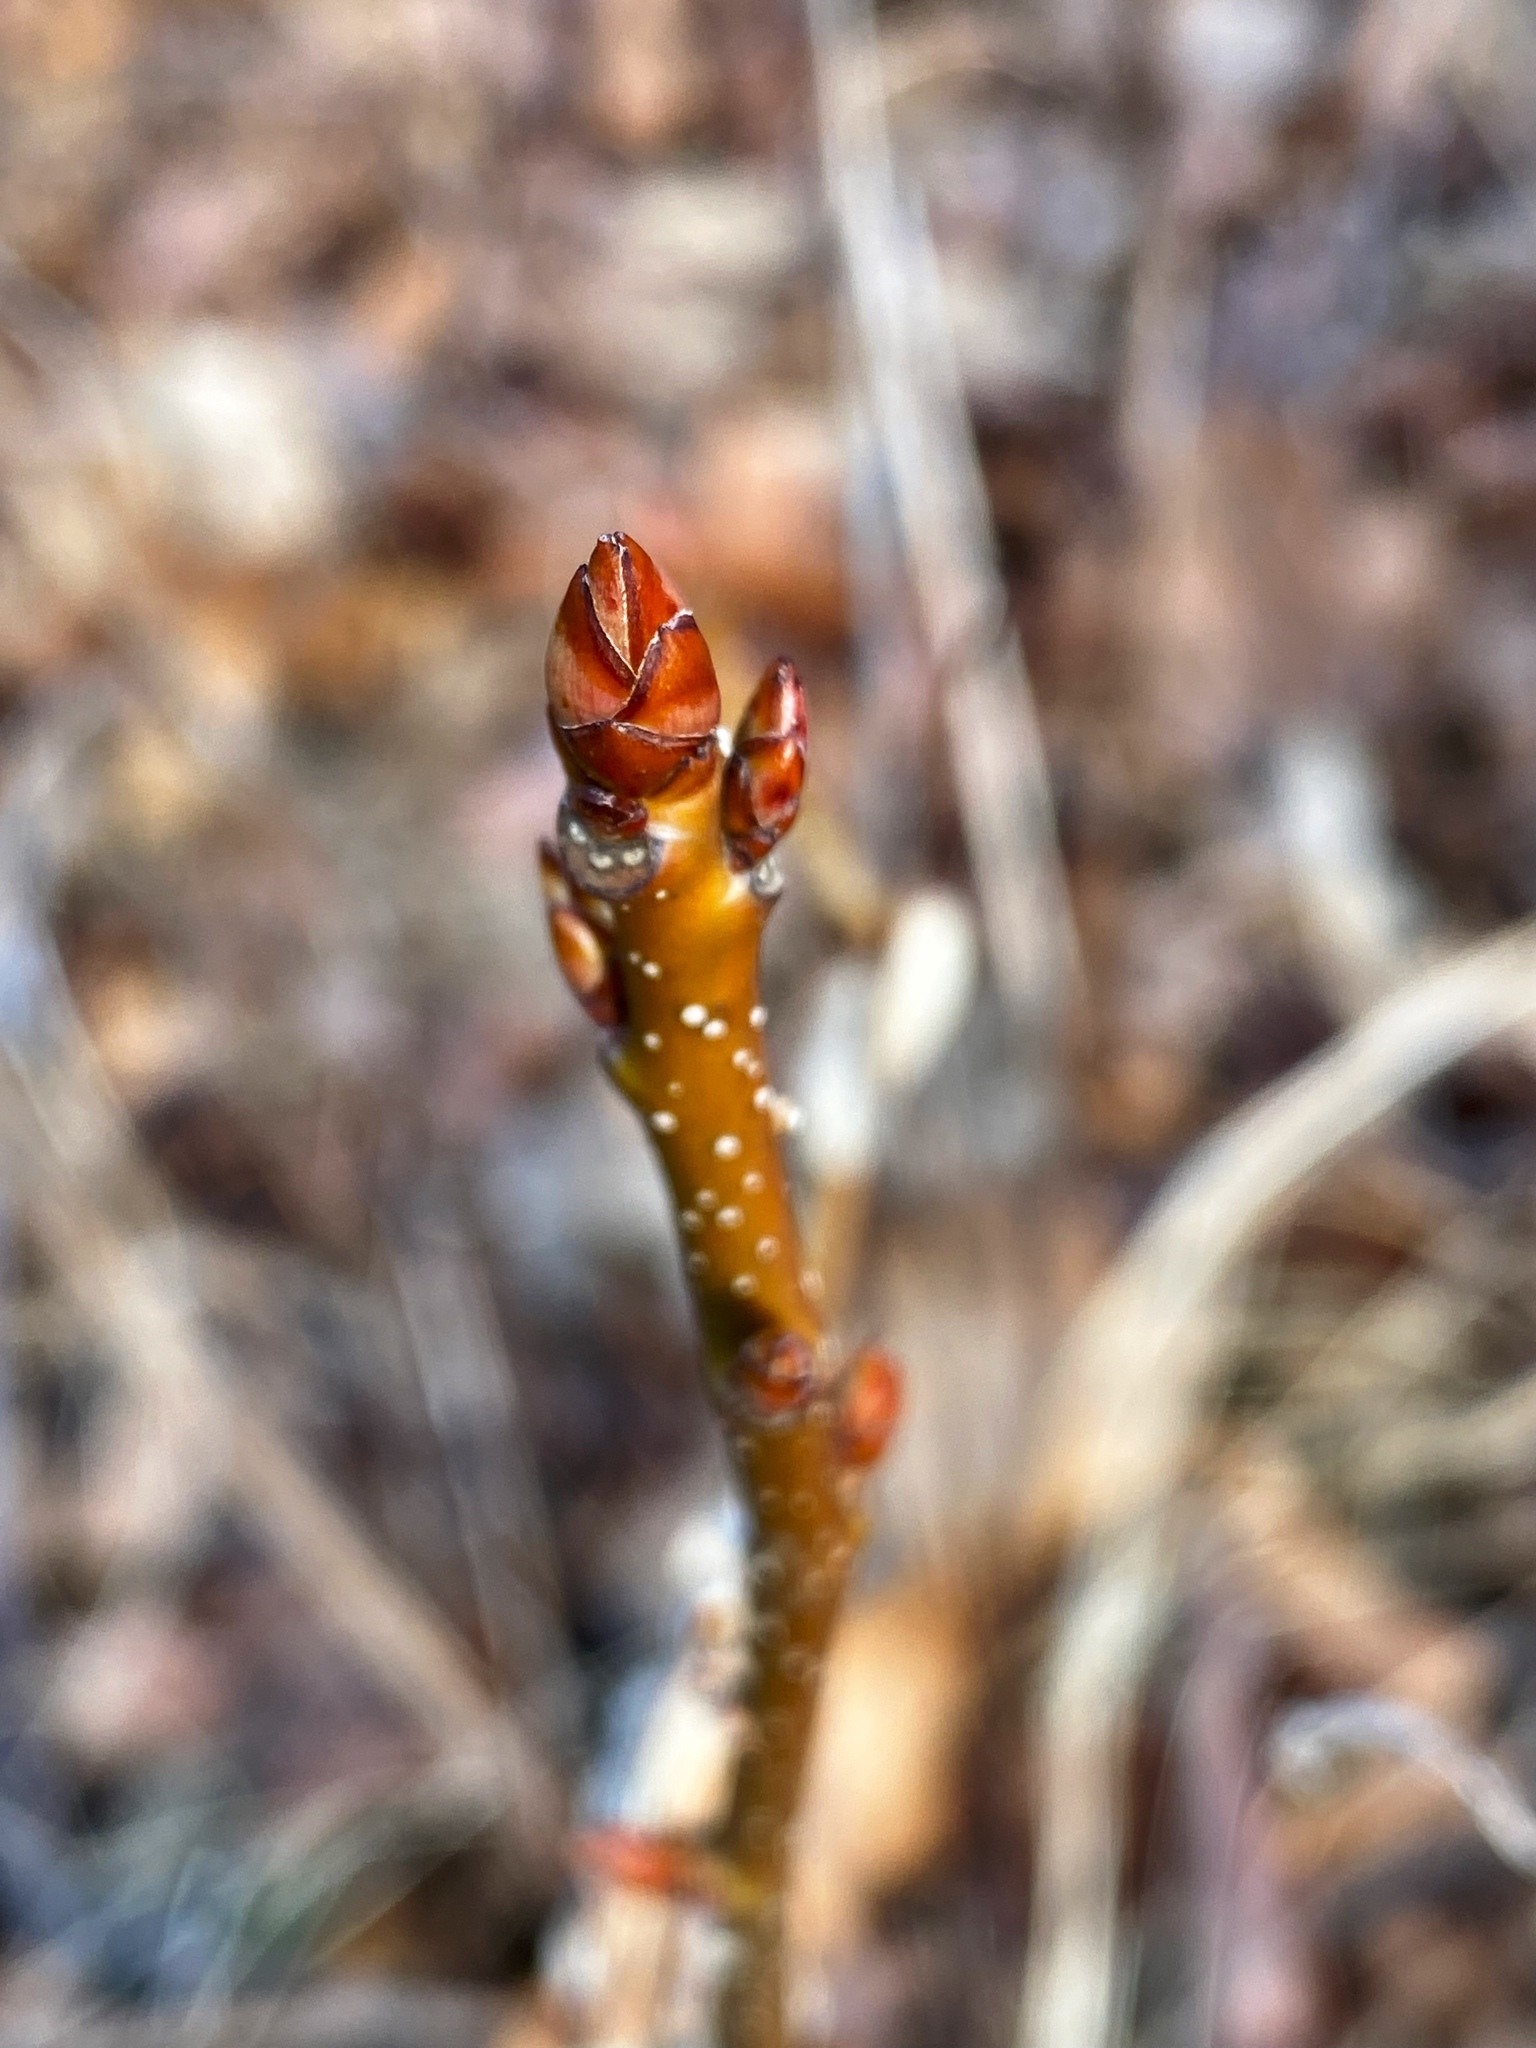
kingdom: Plantae
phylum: Tracheophyta
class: Magnoliopsida
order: Saxifragales
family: Altingiaceae
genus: Liquidambar
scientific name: Liquidambar styraciflua
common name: Sweet gum
